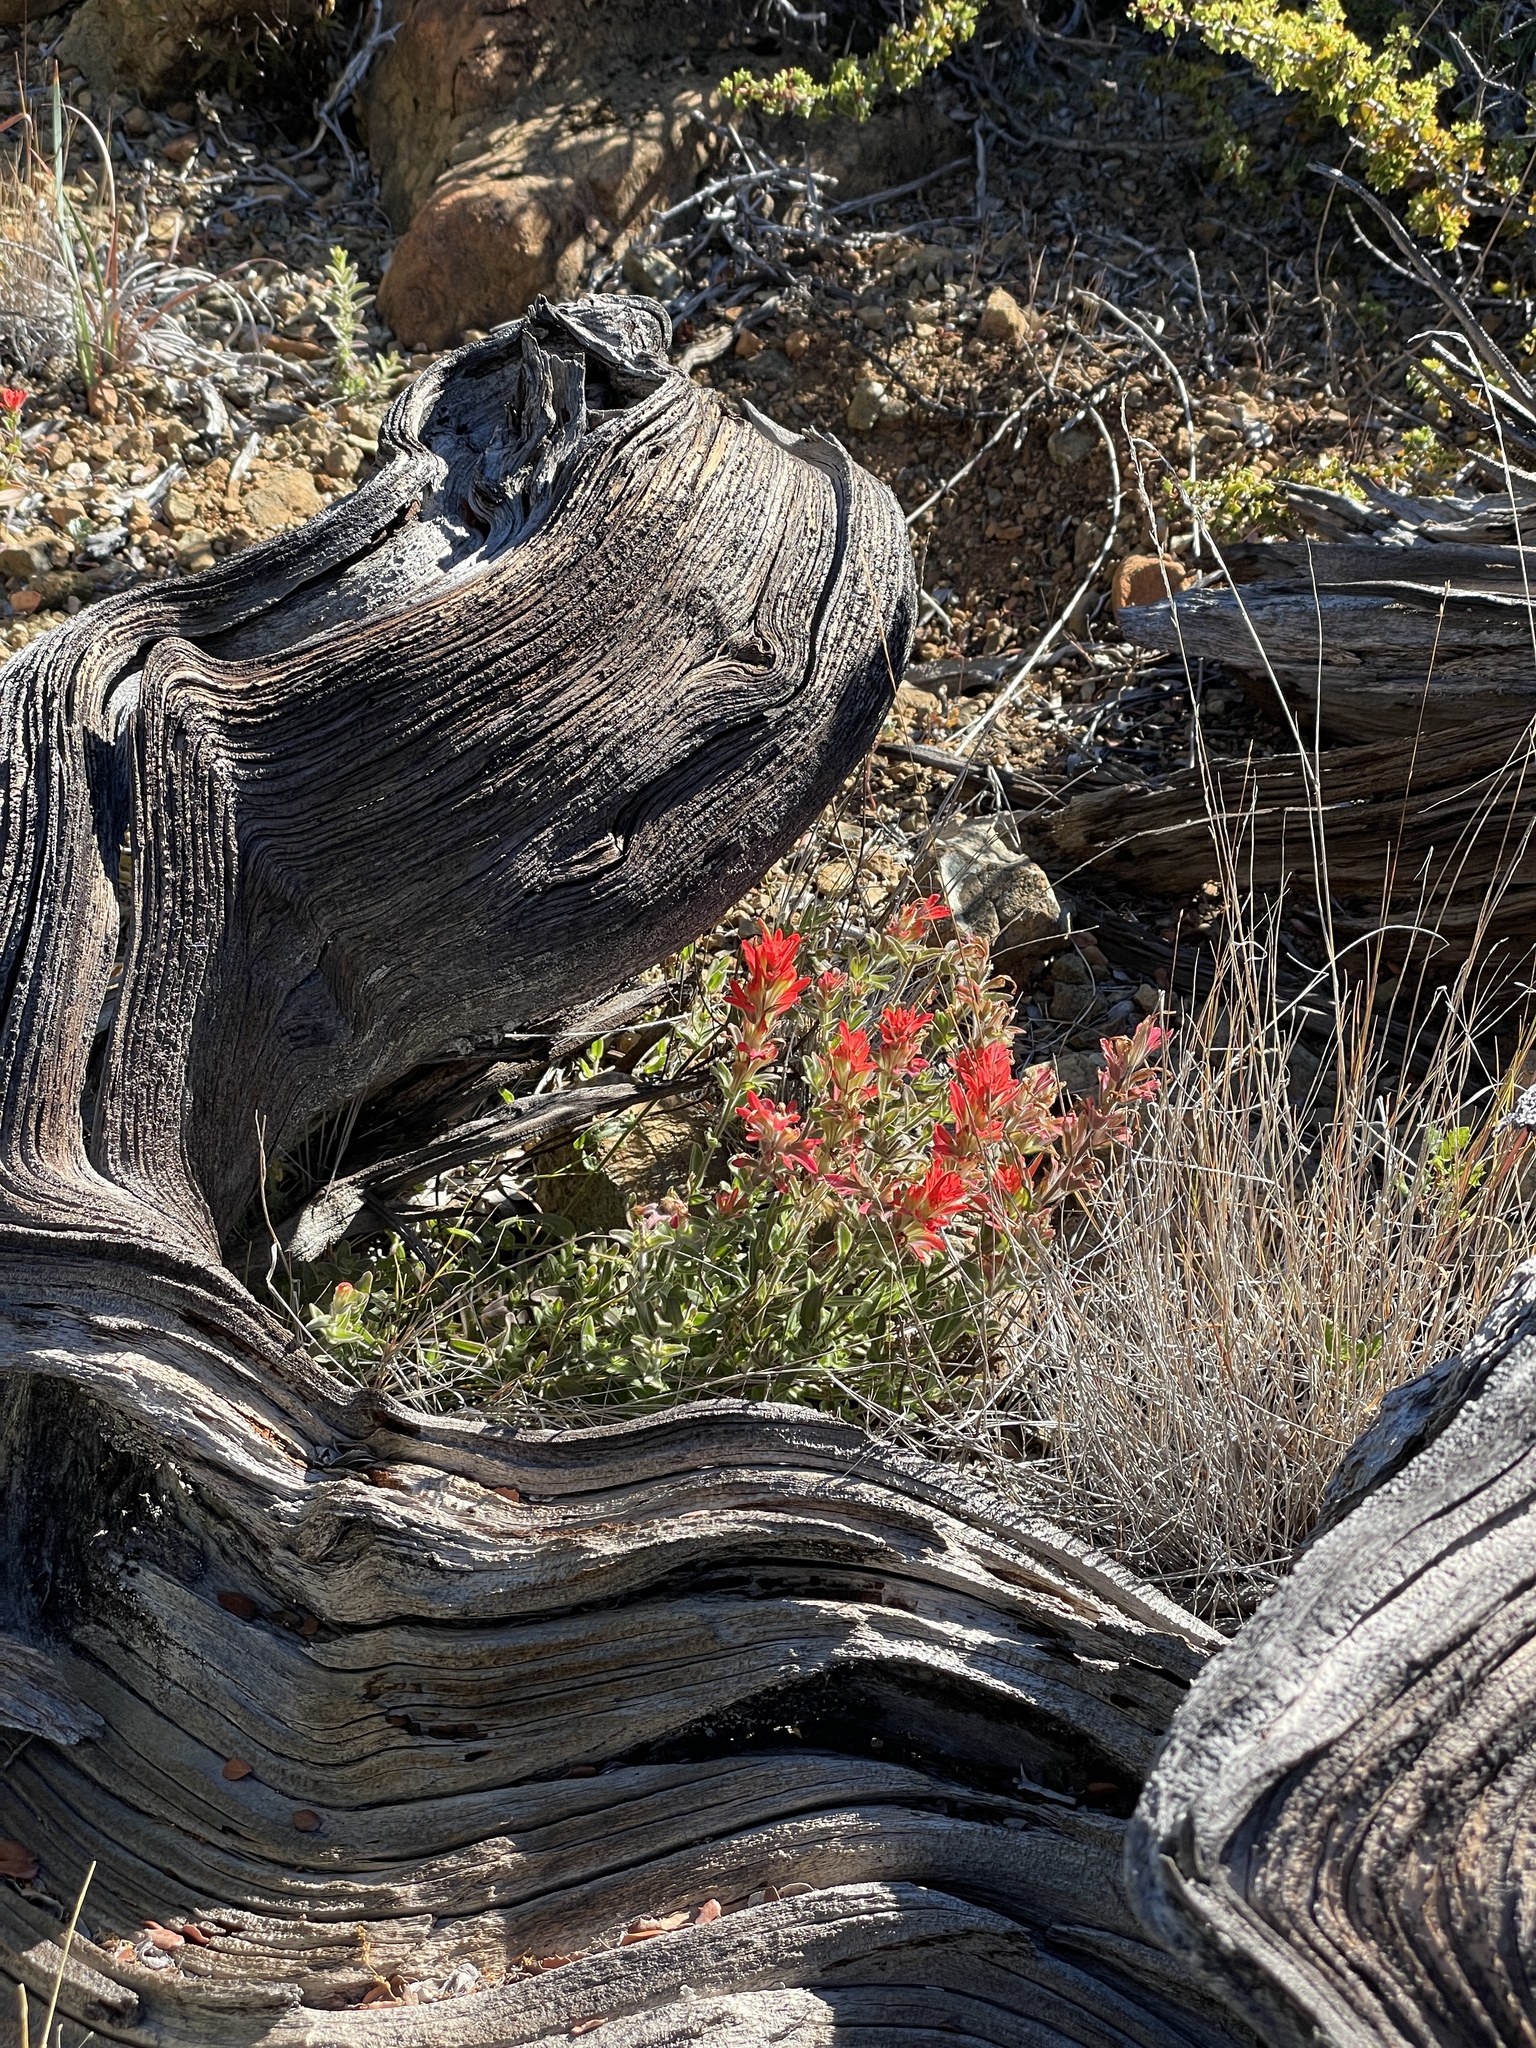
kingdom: Plantae
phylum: Tracheophyta
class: Magnoliopsida
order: Lamiales
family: Orobanchaceae
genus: Castilleja
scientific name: Castilleja martini
